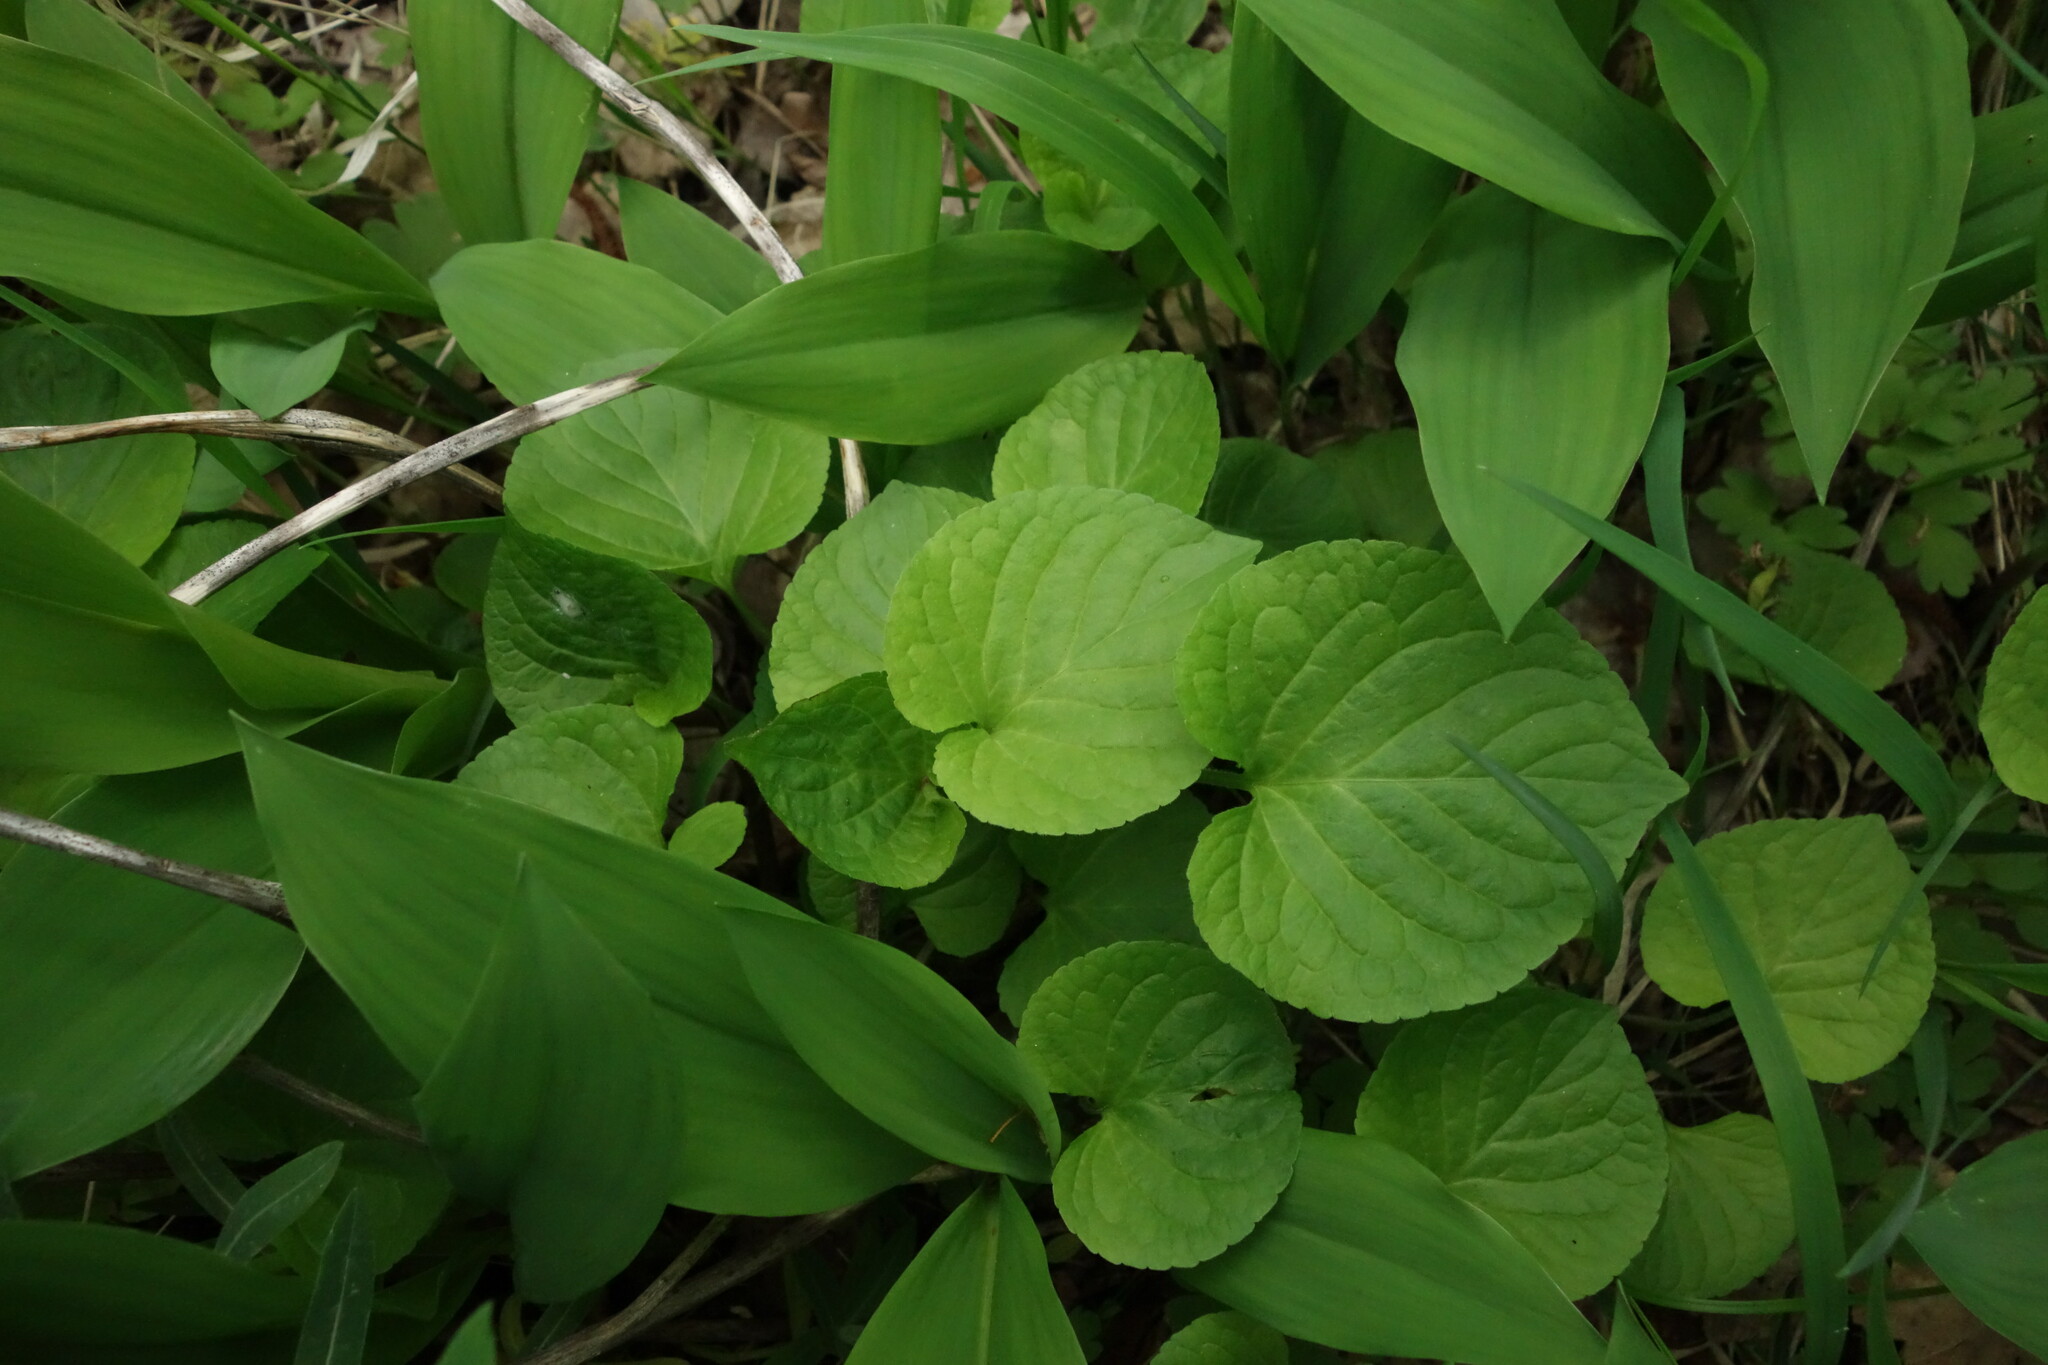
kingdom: Plantae
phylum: Tracheophyta
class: Magnoliopsida
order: Malpighiales
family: Violaceae
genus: Viola
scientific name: Viola mirabilis
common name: Wonder violet
